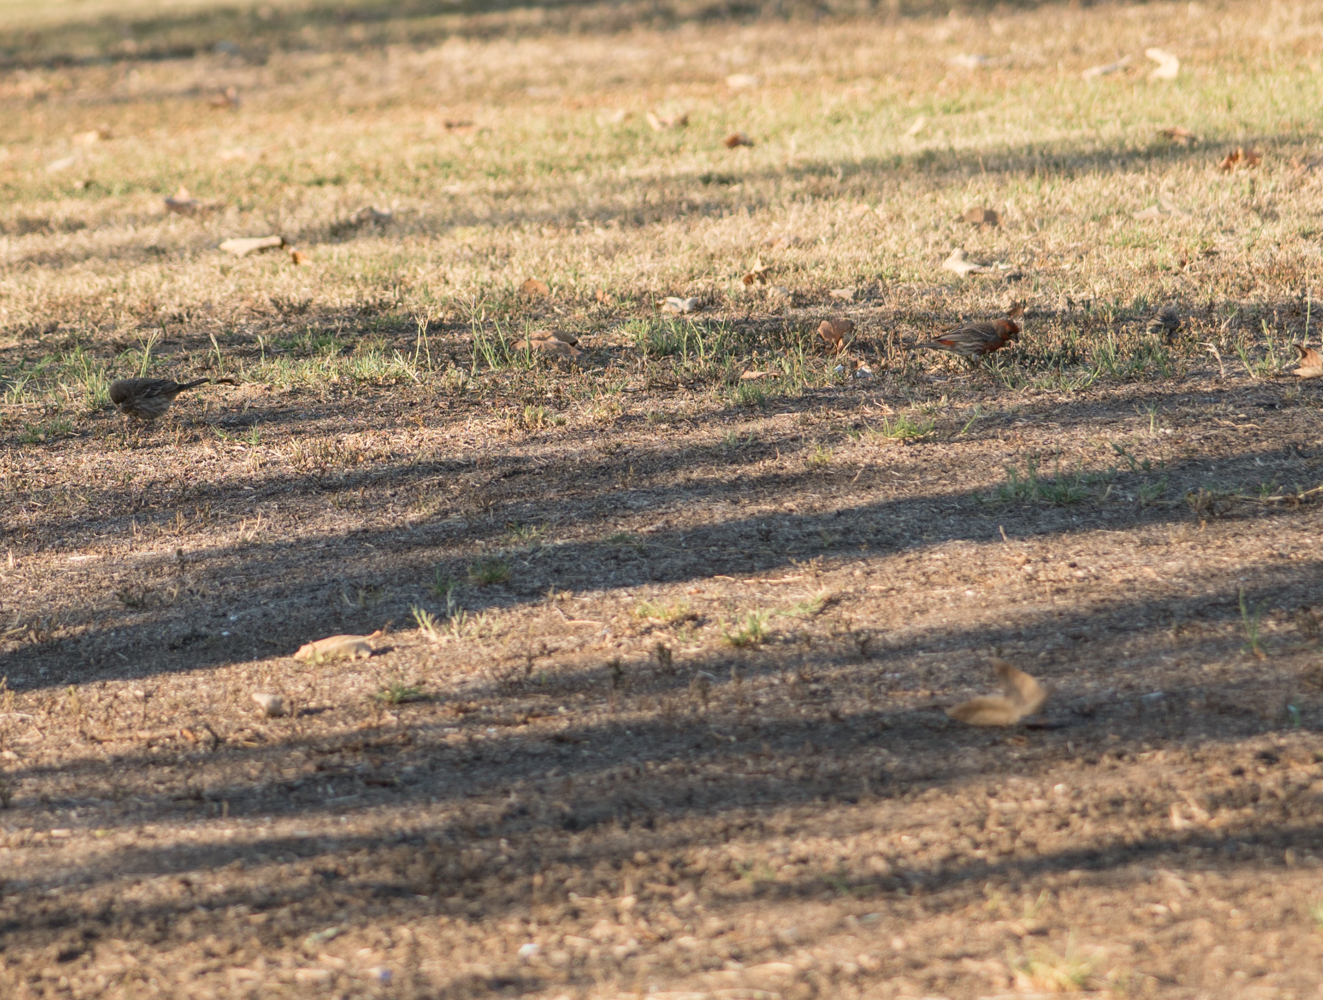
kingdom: Animalia
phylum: Chordata
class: Aves
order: Passeriformes
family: Fringillidae
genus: Haemorhous
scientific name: Haemorhous mexicanus
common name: House finch
